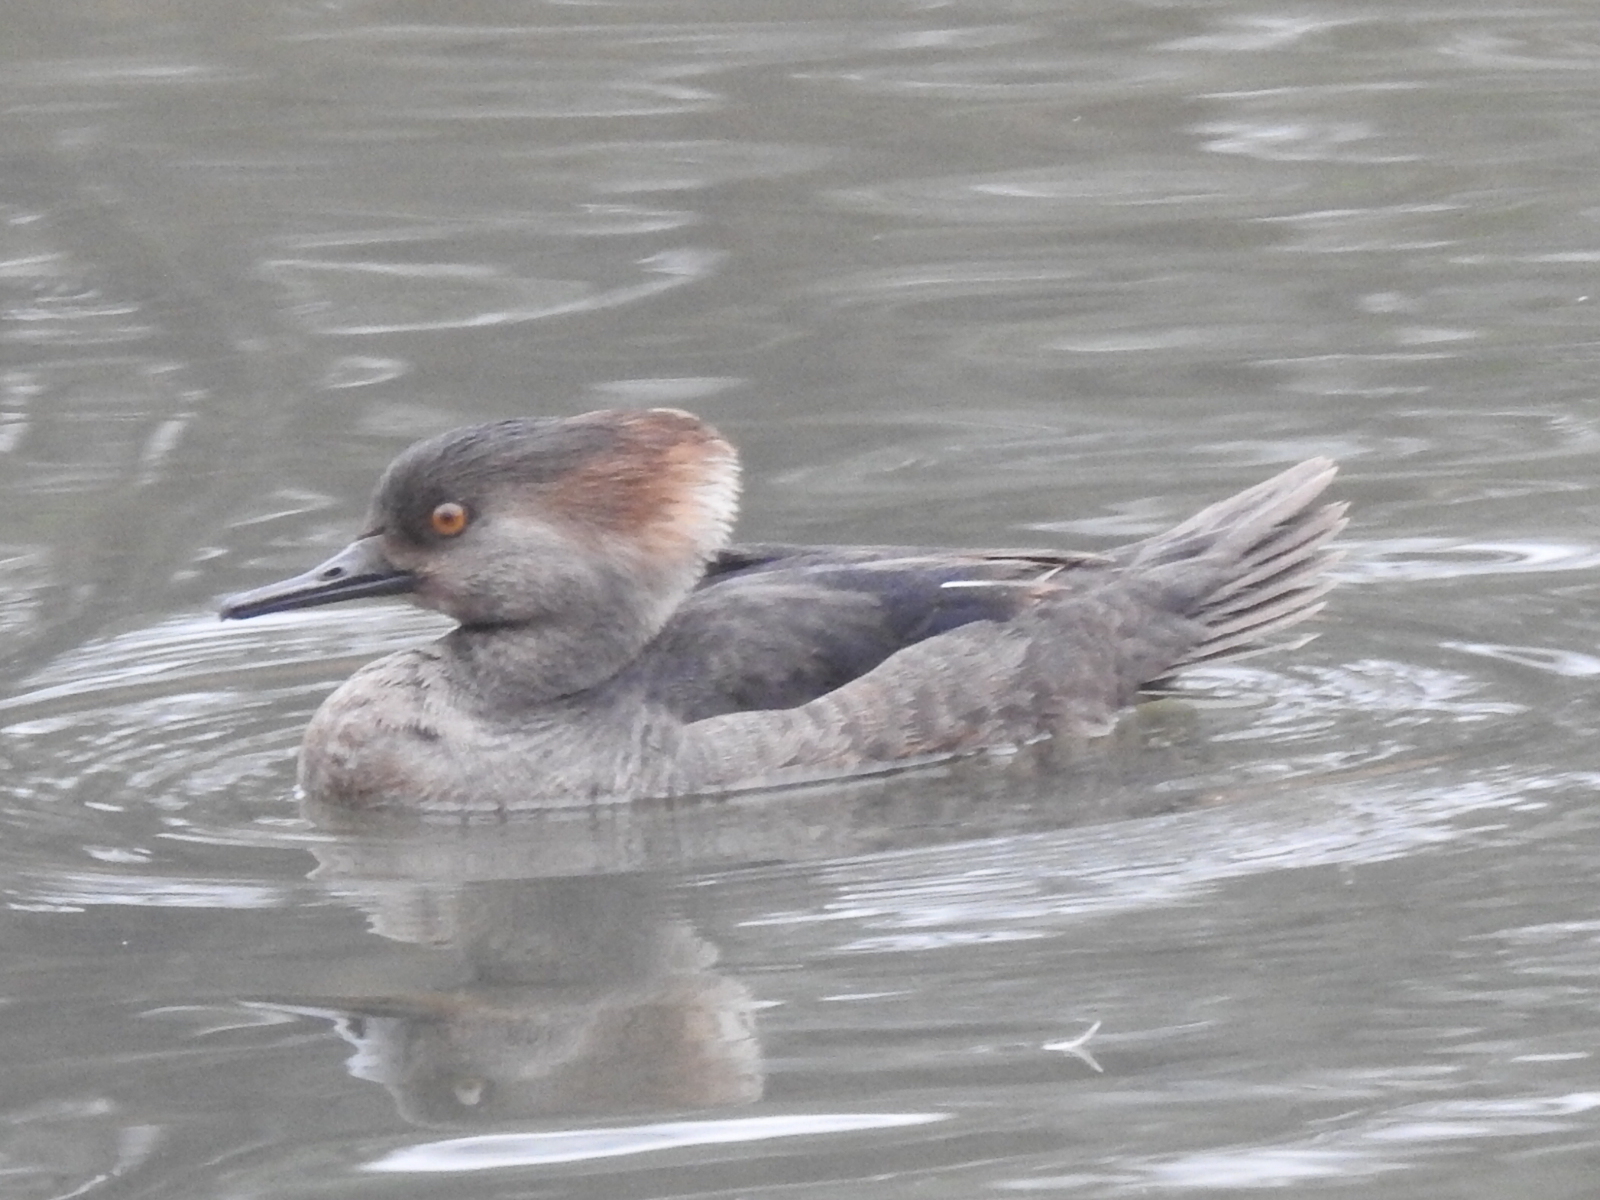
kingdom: Animalia
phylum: Chordata
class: Aves
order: Anseriformes
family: Anatidae
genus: Lophodytes
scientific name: Lophodytes cucullatus
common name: Hooded merganser
